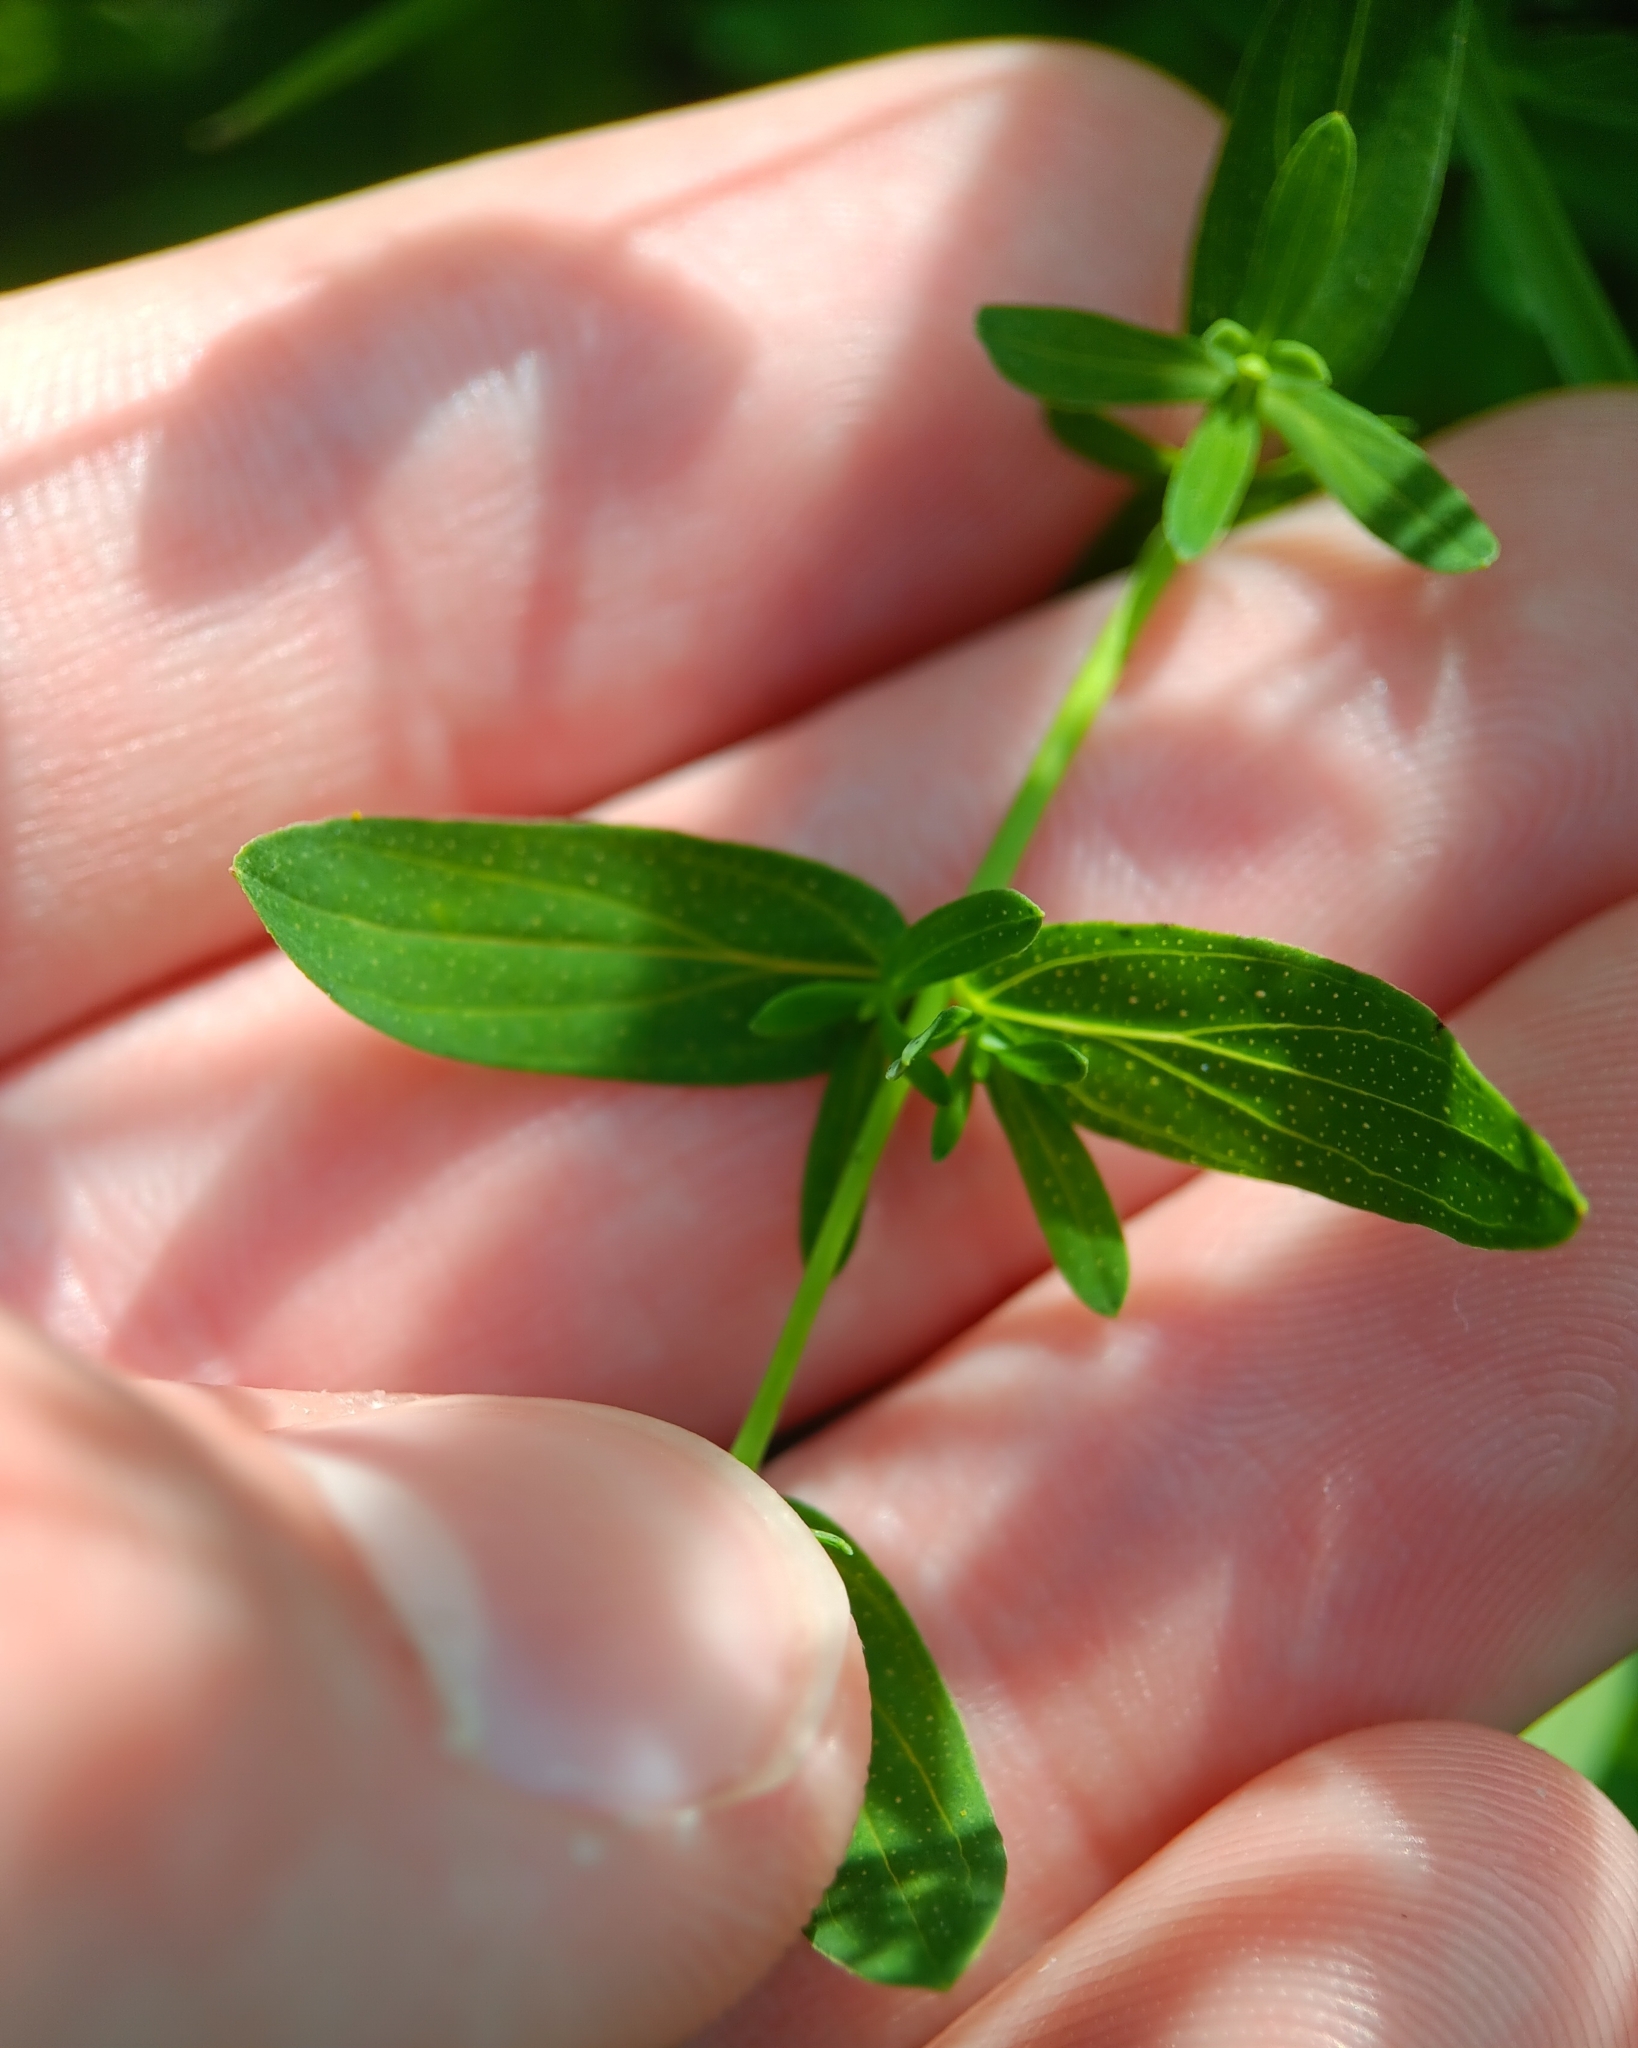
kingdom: Plantae
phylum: Tracheophyta
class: Magnoliopsida
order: Malpighiales
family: Hypericaceae
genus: Hypericum
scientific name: Hypericum perforatum
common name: Common st. johnswort
